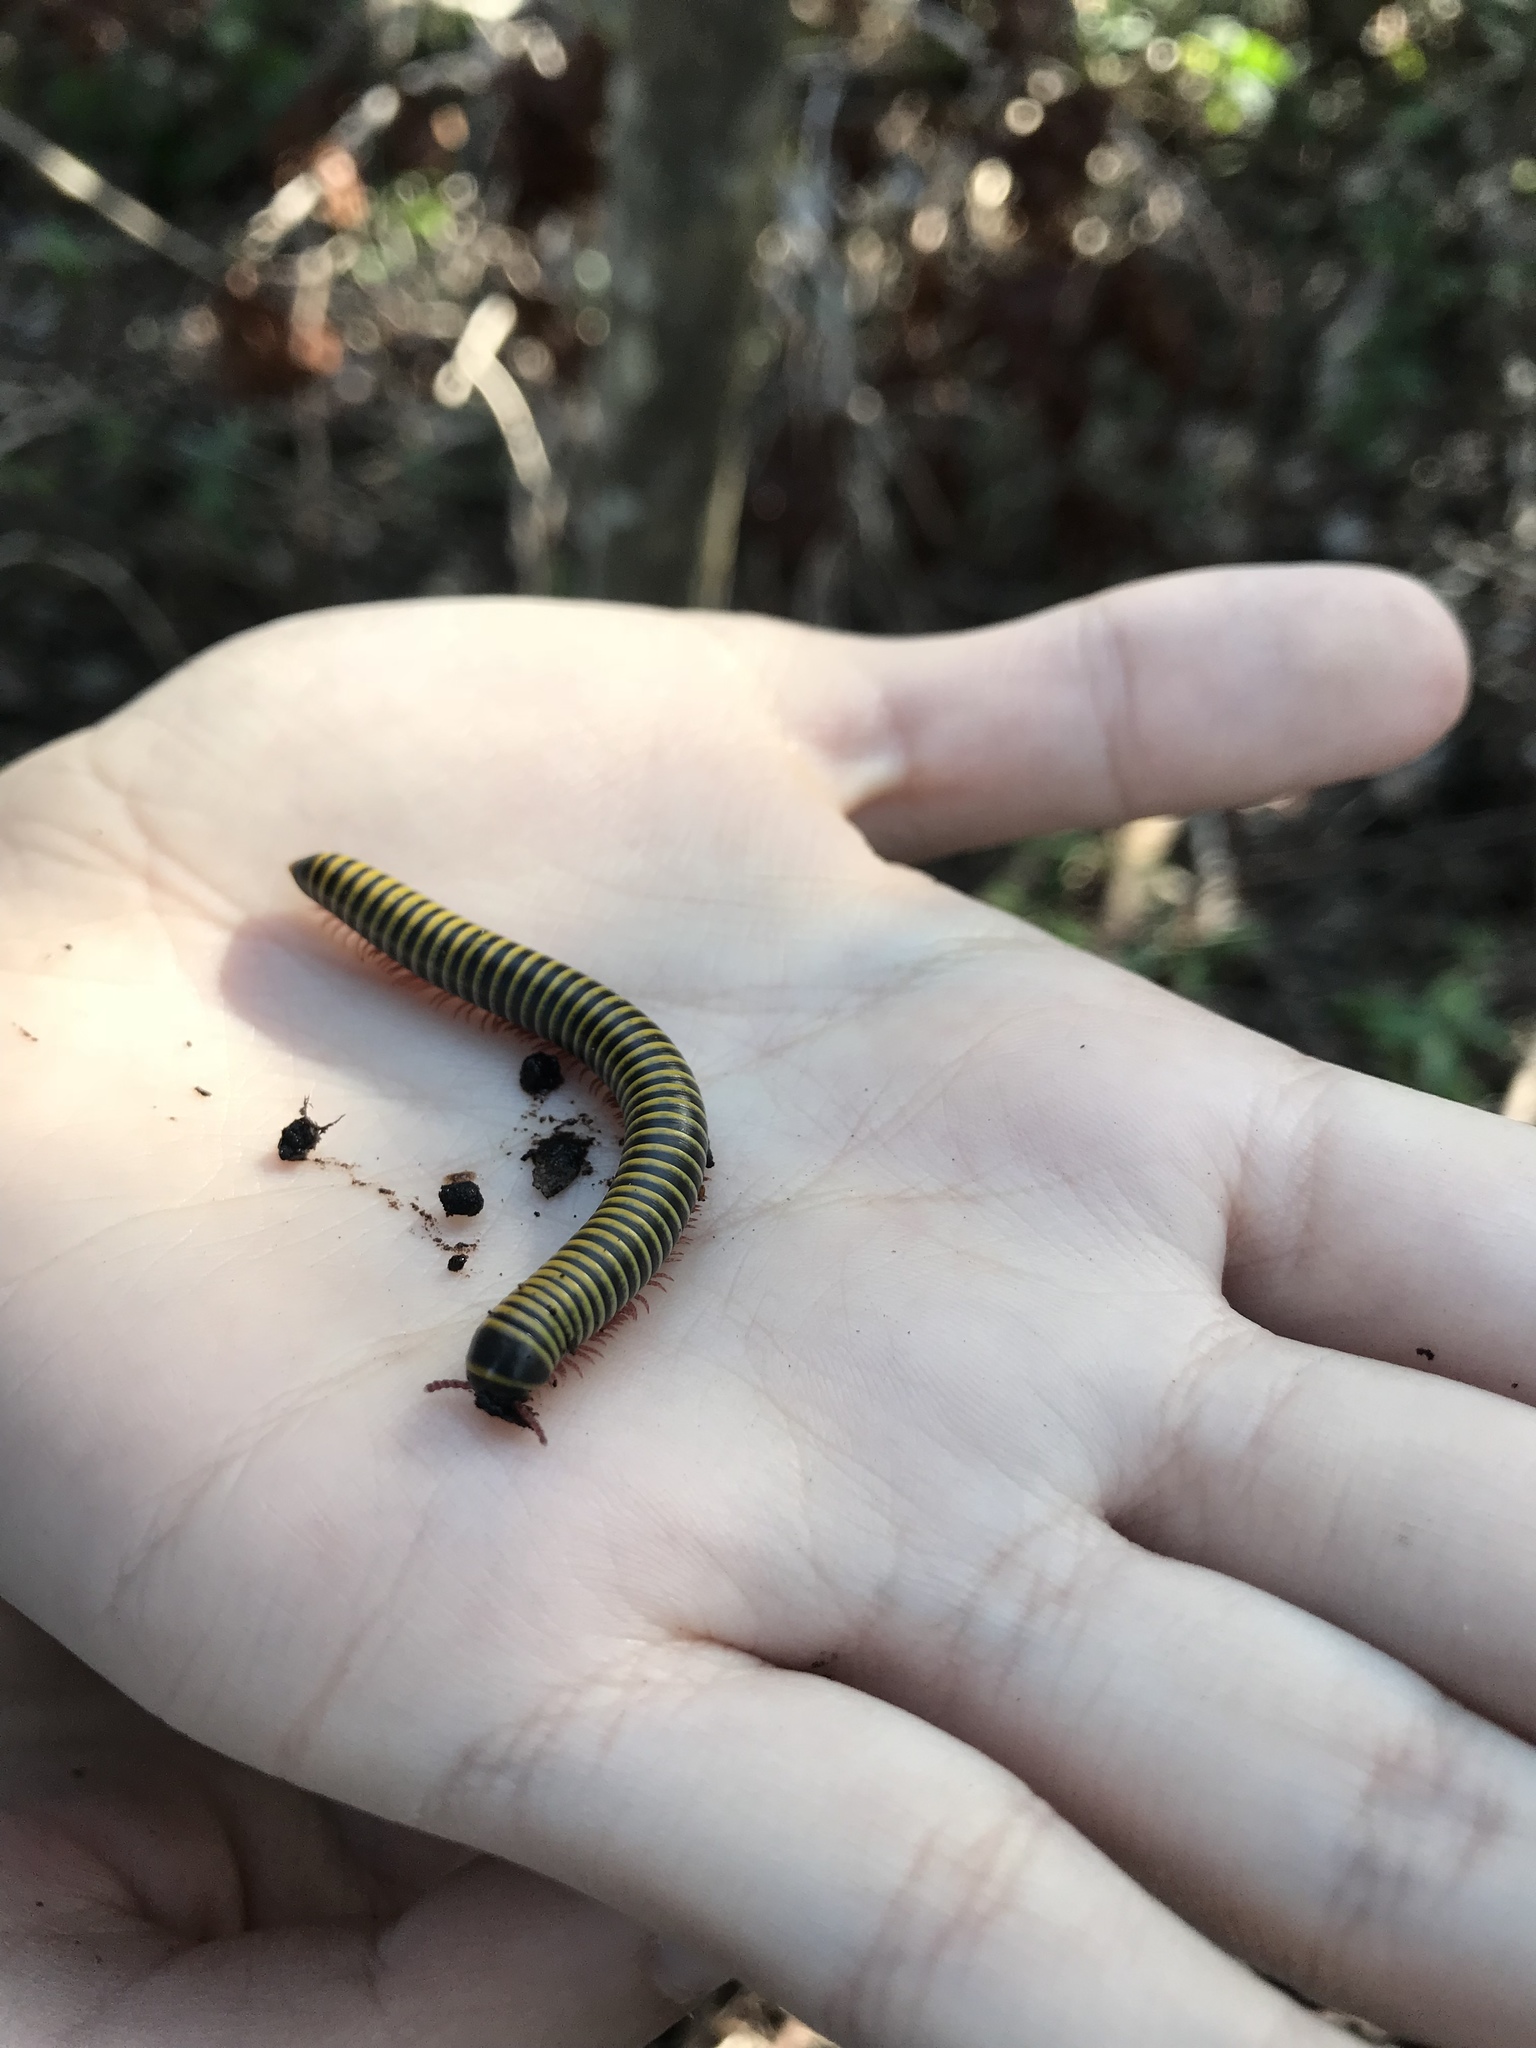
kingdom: Animalia
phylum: Arthropoda
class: Diplopoda
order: Spirobolida
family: Rhinocricidae
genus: Anadenobolus
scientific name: Anadenobolus monilicornis
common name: Caribbean millipede
